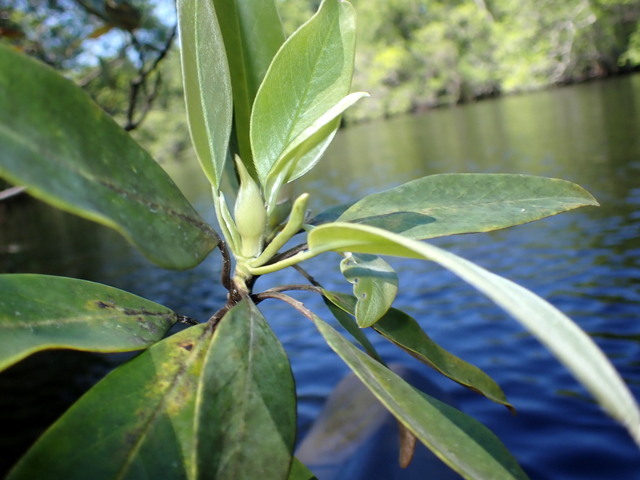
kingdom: Plantae
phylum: Tracheophyta
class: Magnoliopsida
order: Magnoliales
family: Magnoliaceae
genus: Magnolia
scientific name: Magnolia virginiana
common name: Swamp bay
